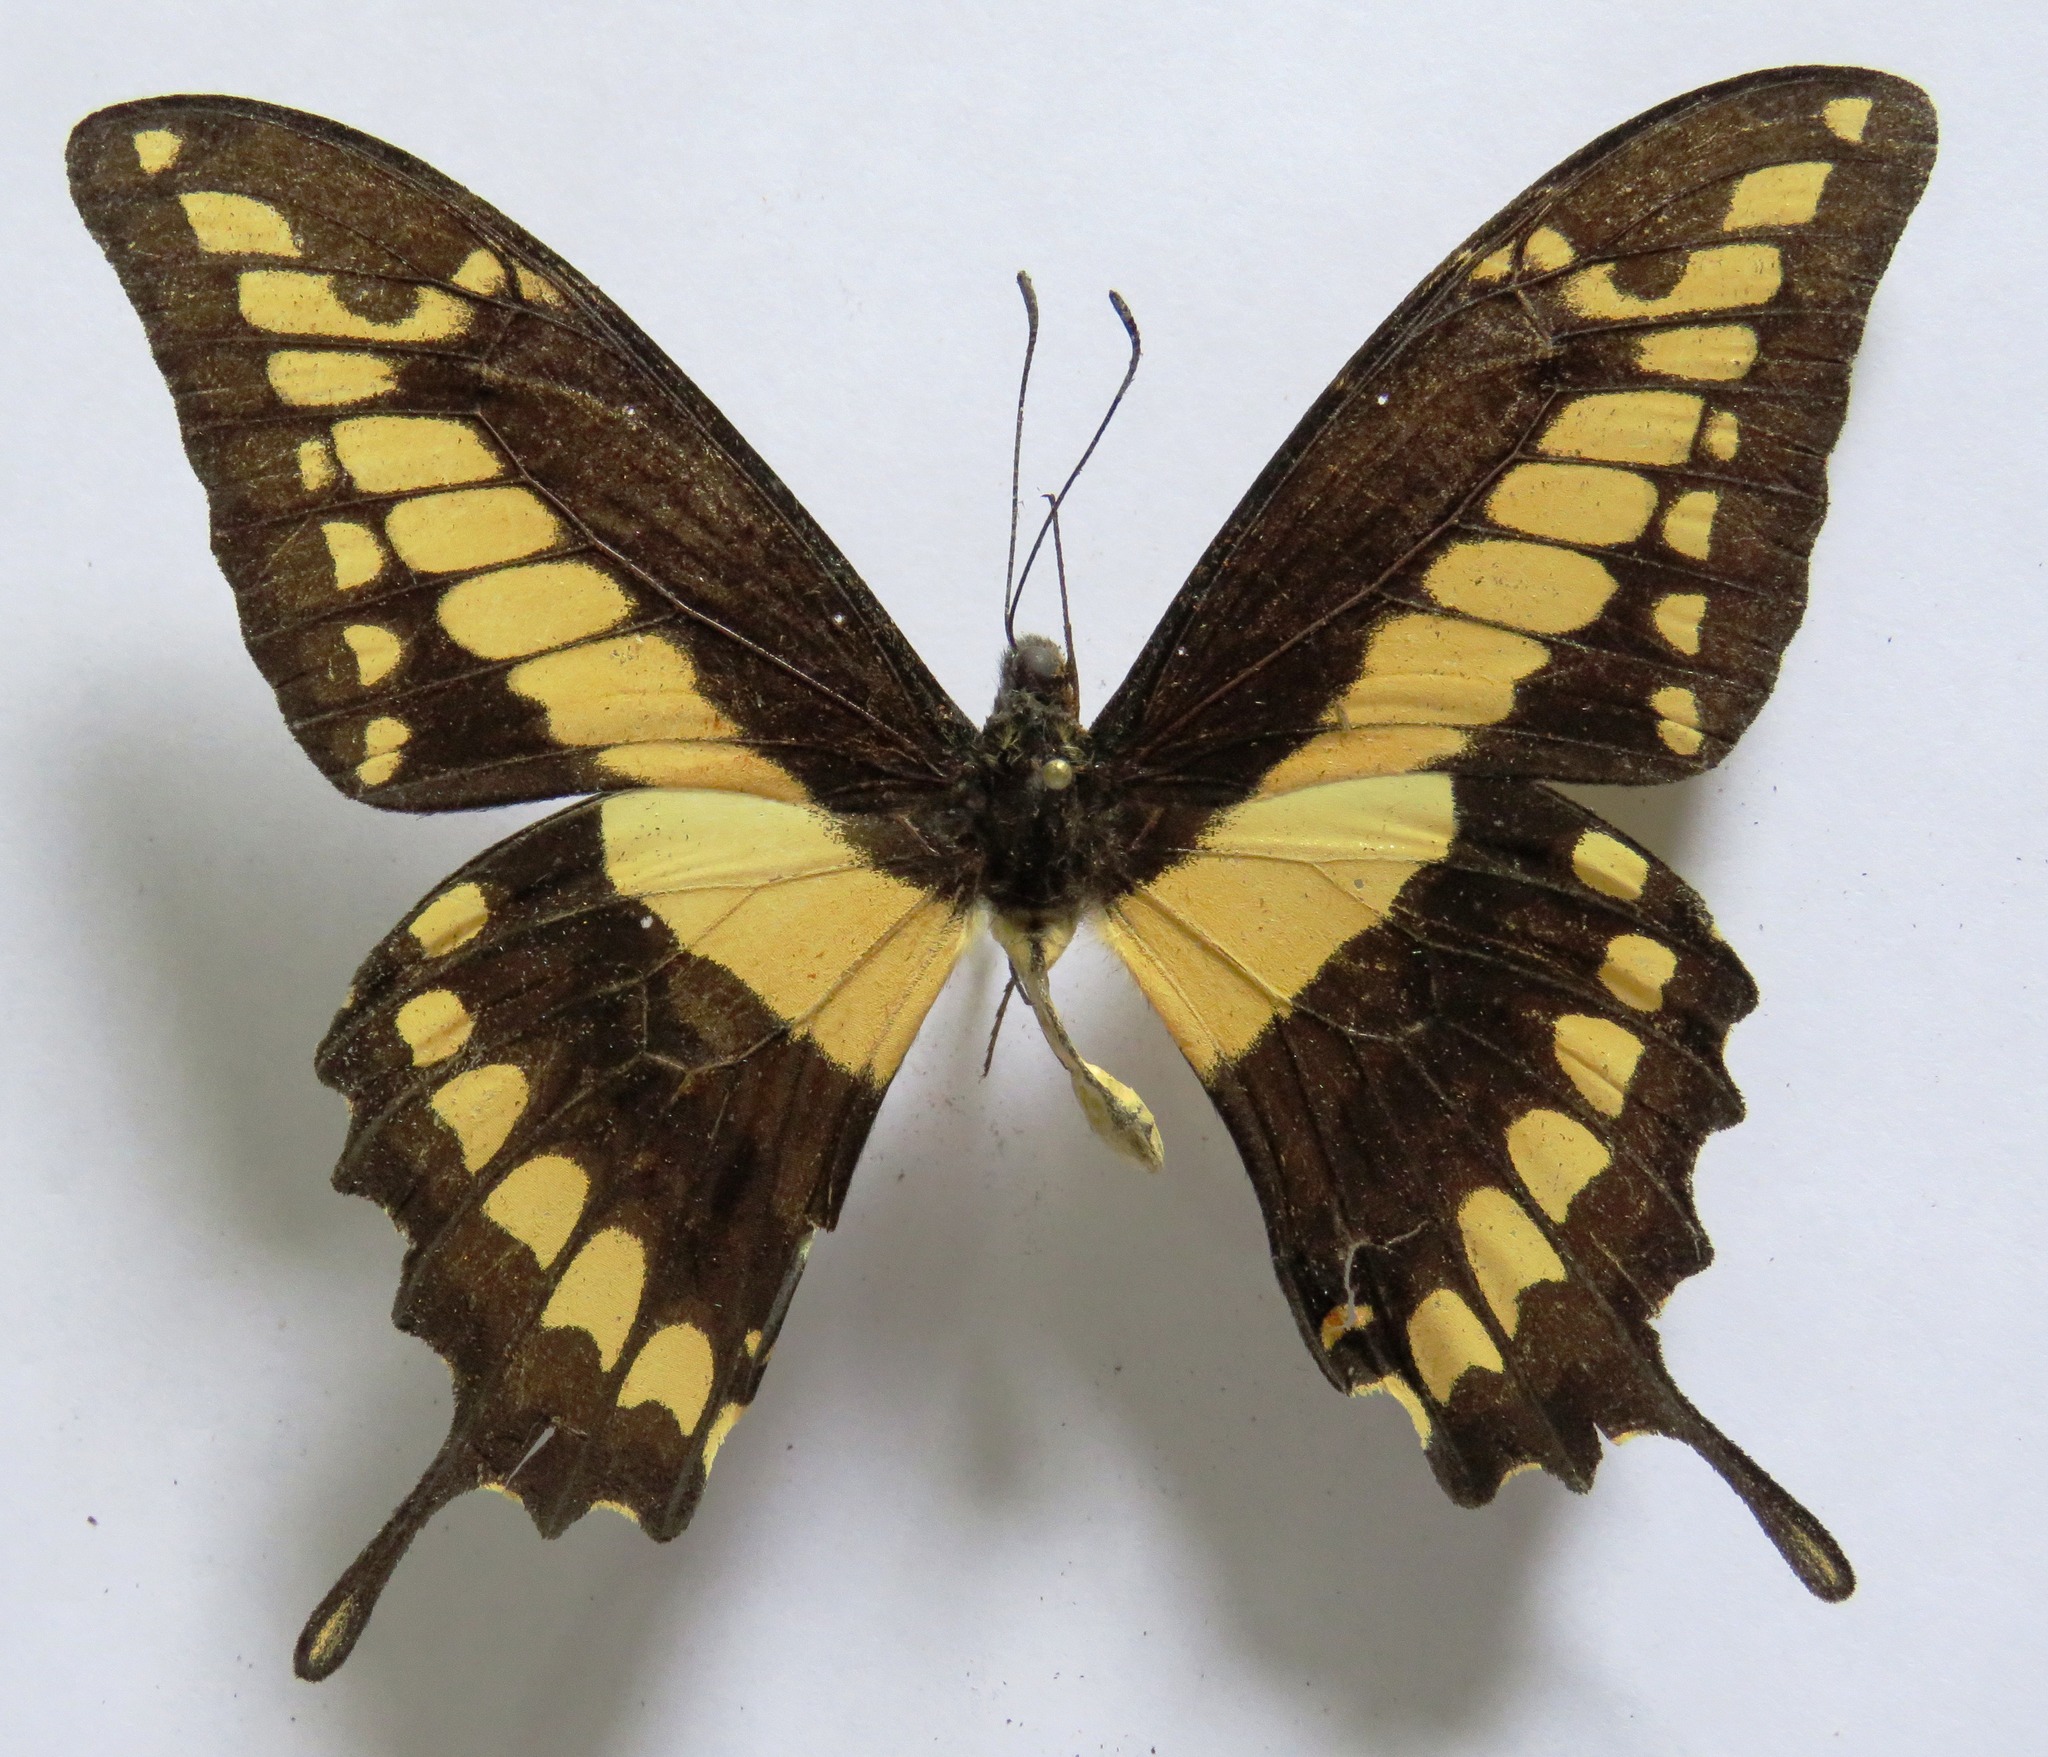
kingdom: Animalia
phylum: Arthropoda
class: Insecta
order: Lepidoptera
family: Papilionidae
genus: Papilio
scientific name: Papilio thoas
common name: King swallowtail
